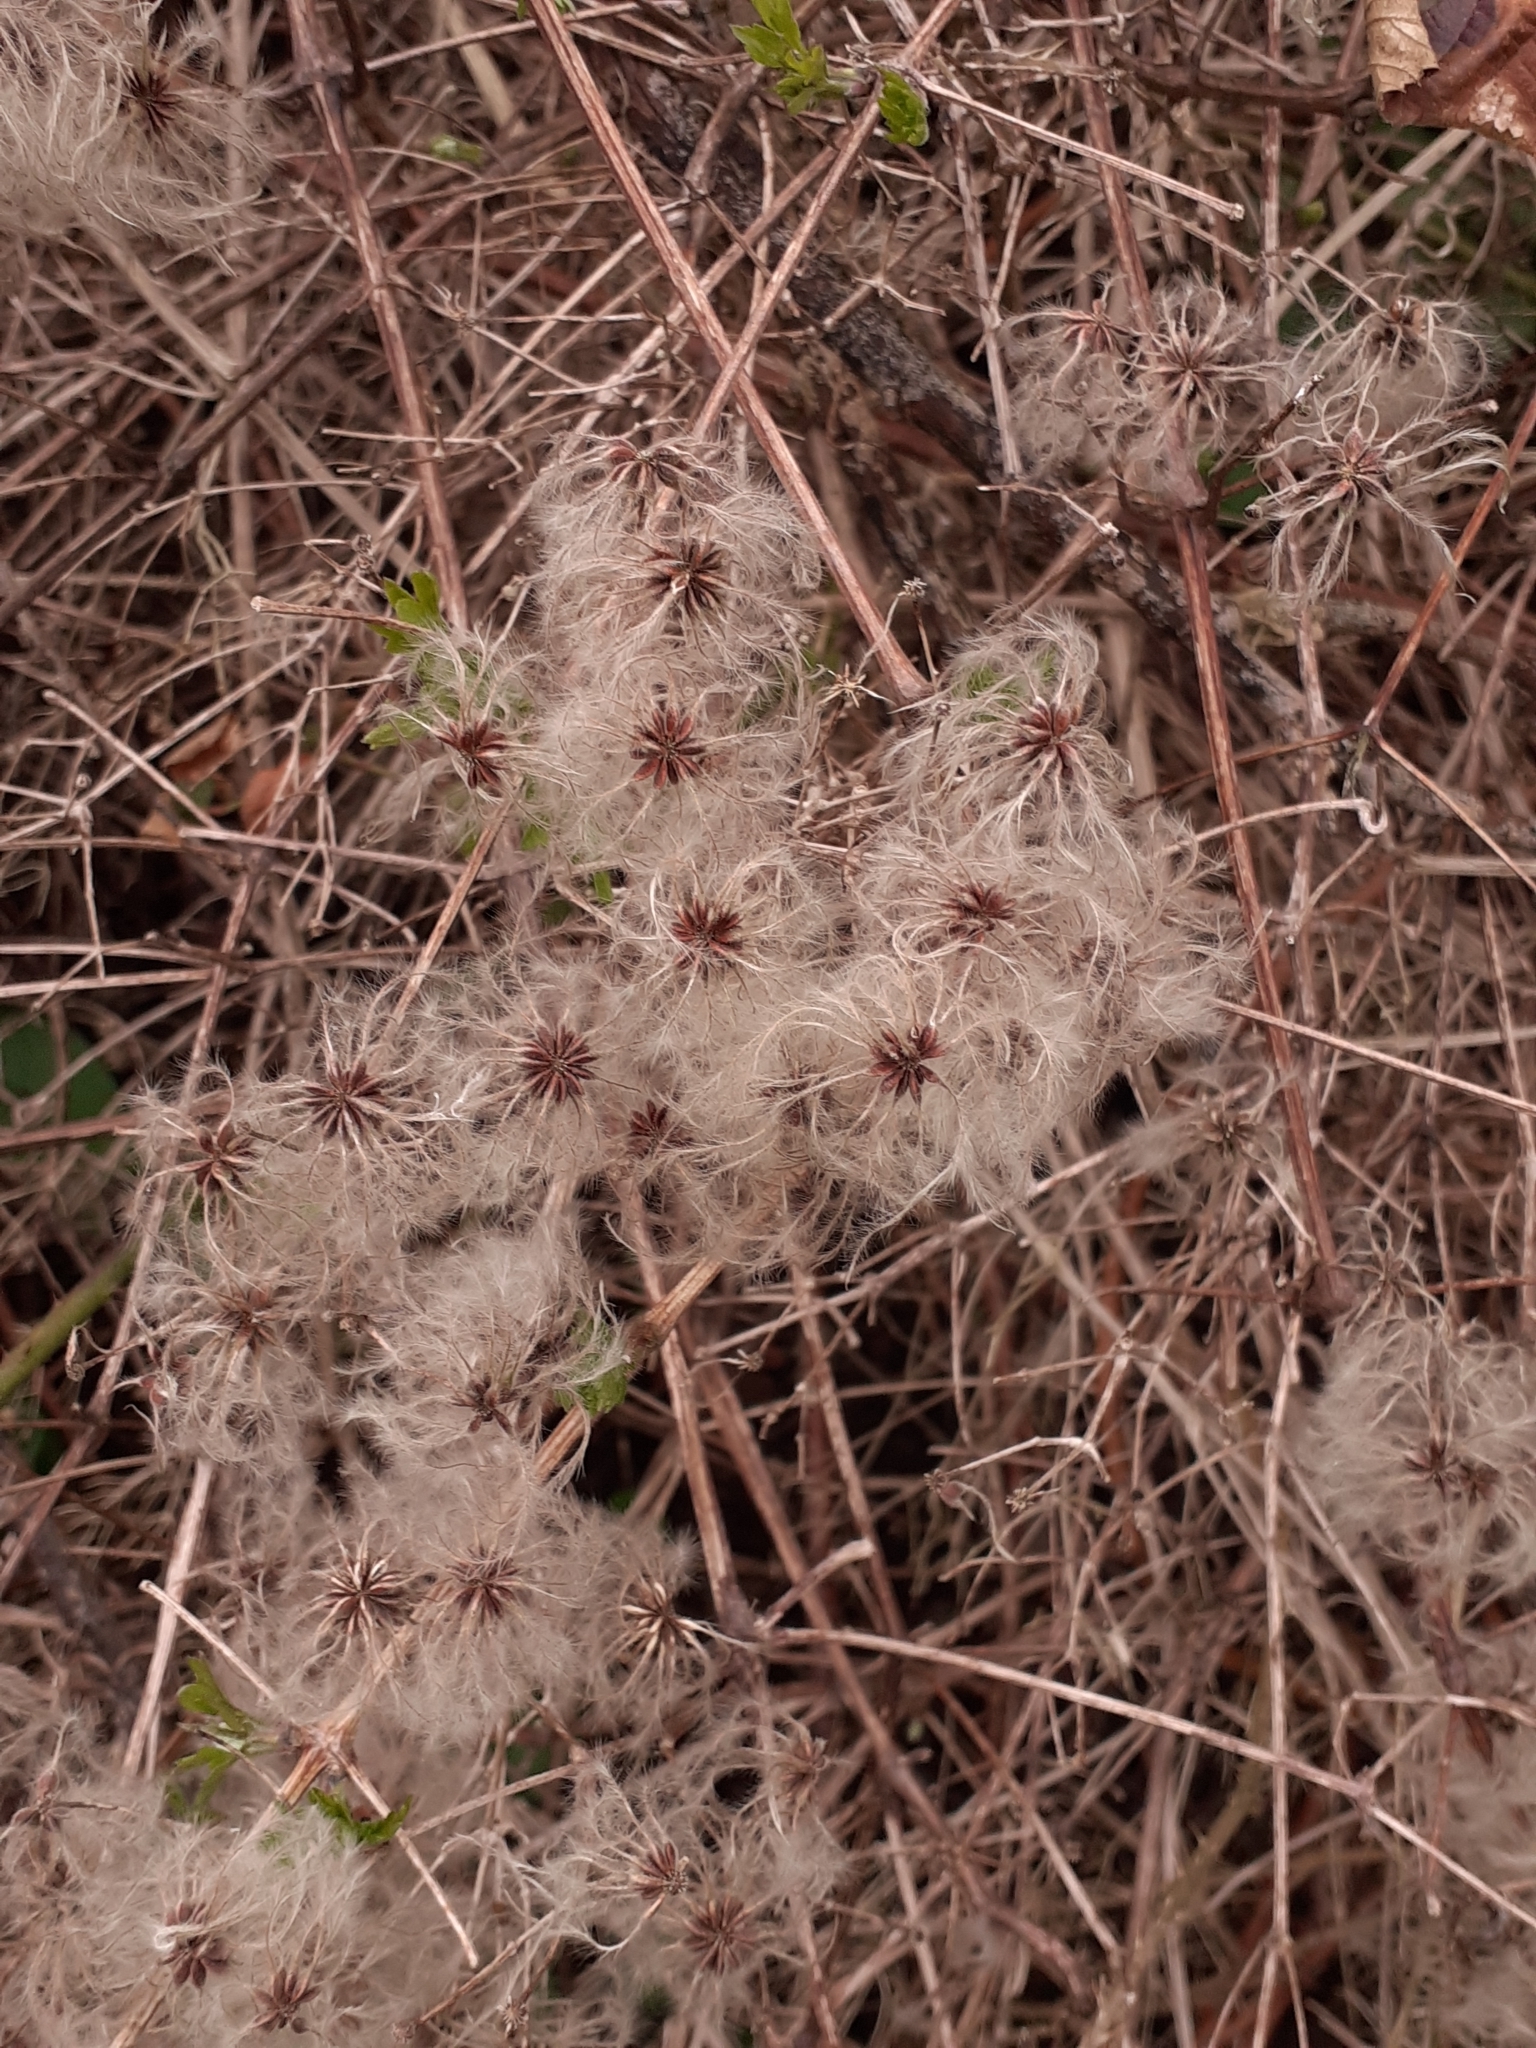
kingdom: Plantae
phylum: Tracheophyta
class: Magnoliopsida
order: Ranunculales
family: Ranunculaceae
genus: Clematis
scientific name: Clematis vitalba
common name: Evergreen clematis
